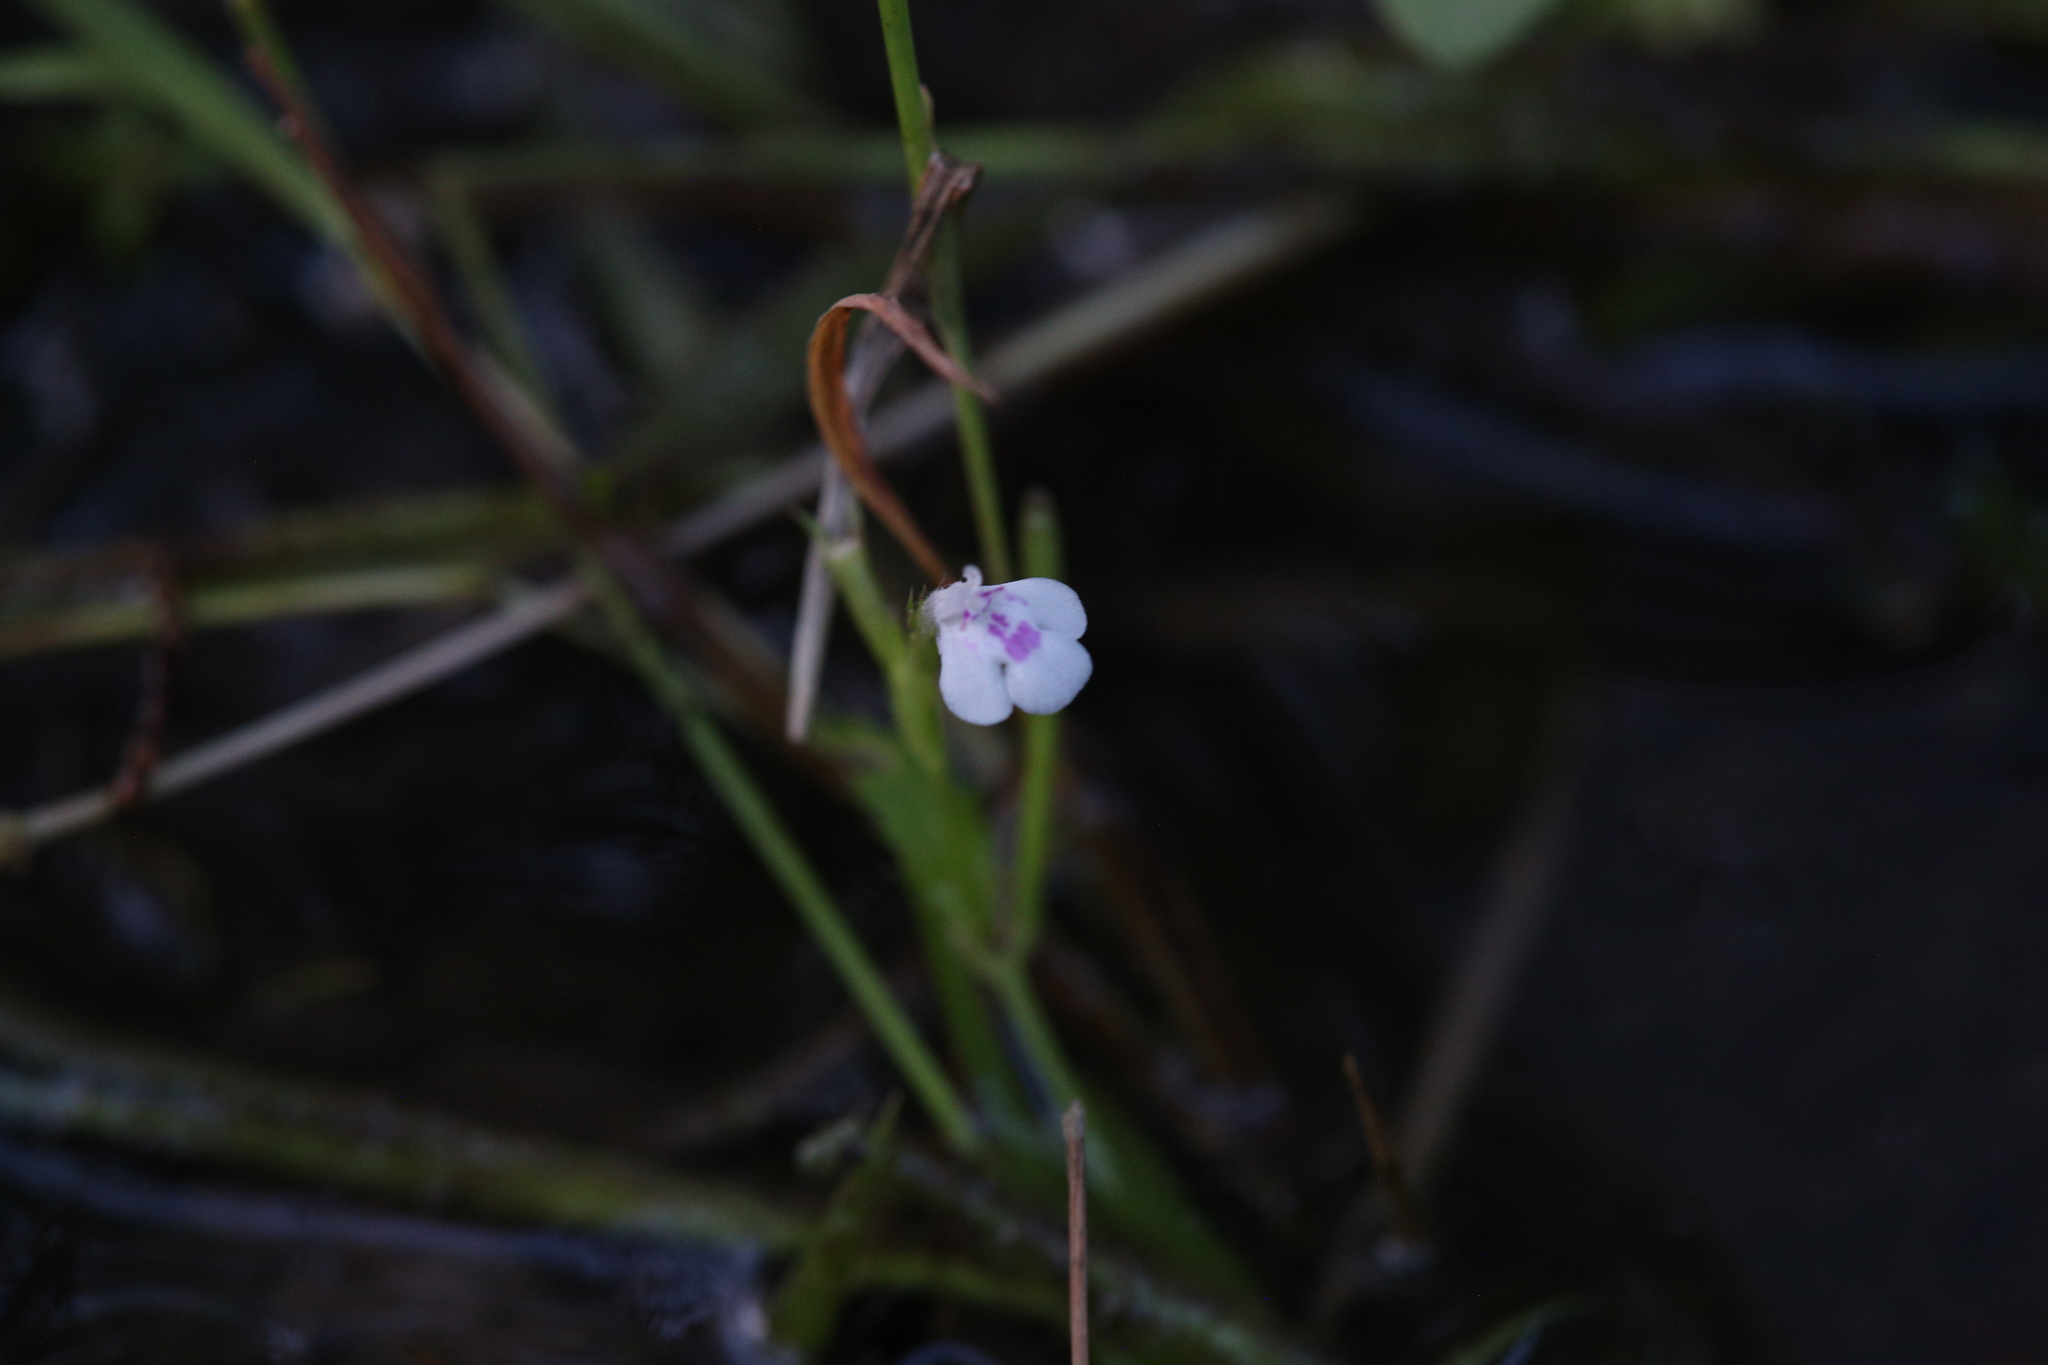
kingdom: Plantae
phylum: Tracheophyta
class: Magnoliopsida
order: Lamiales
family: Linderniaceae
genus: Bonnaya
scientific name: Bonnaya ciliata
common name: Hairy slitwort
